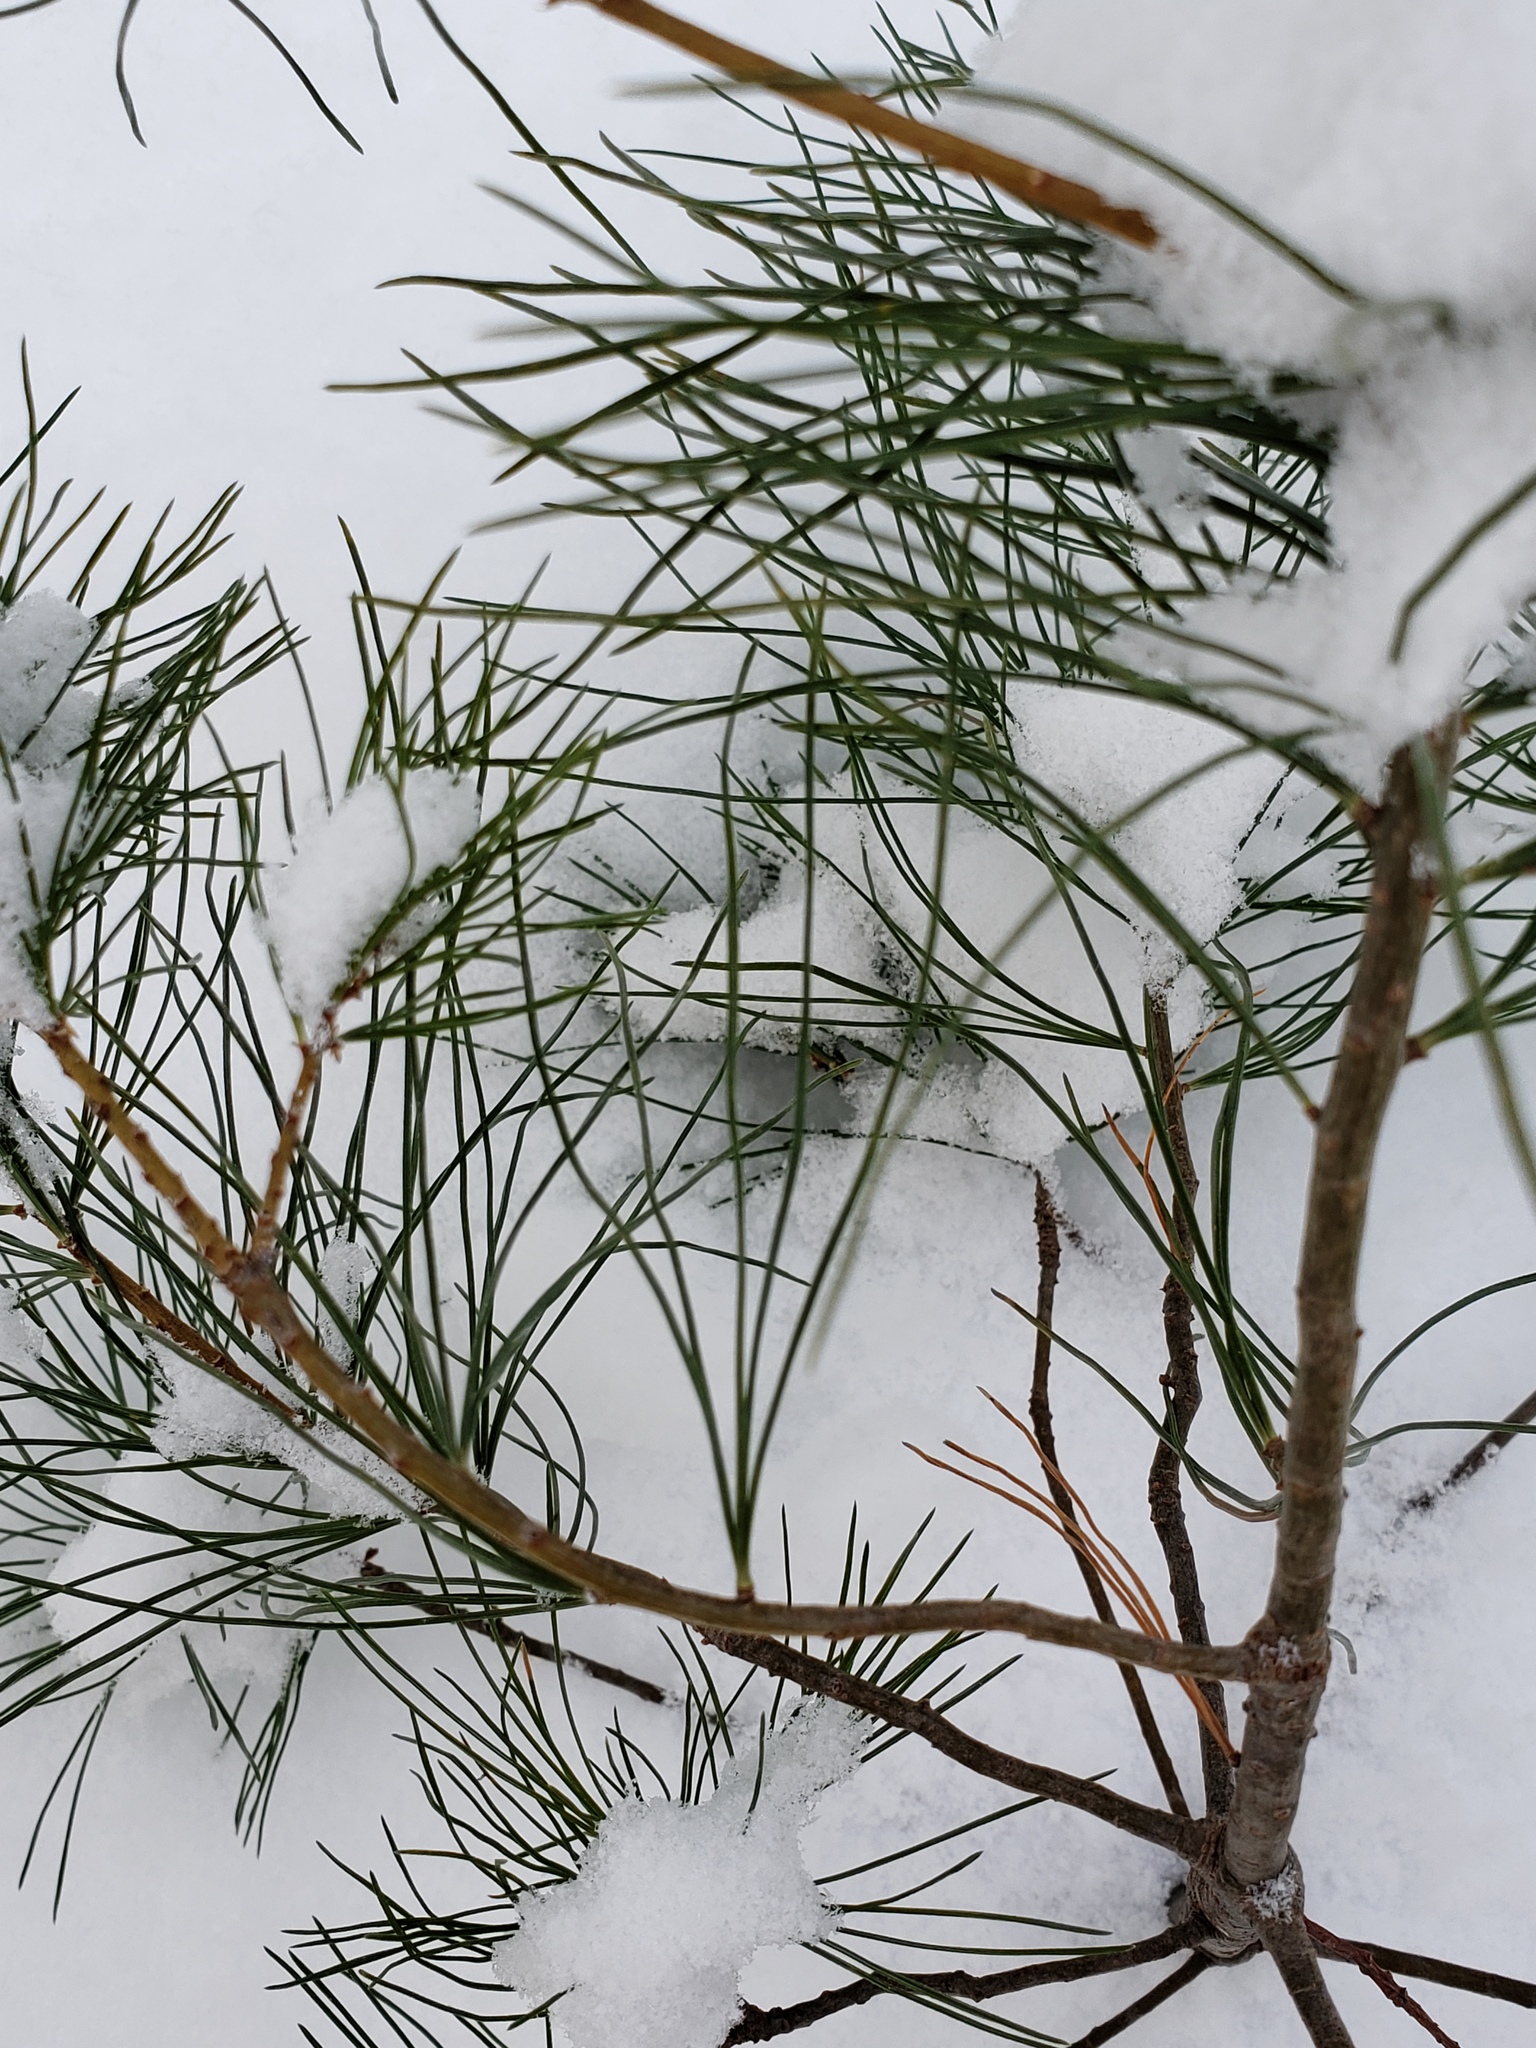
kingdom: Plantae
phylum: Tracheophyta
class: Pinopsida
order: Pinales
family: Pinaceae
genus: Pinus
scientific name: Pinus strobus
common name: Weymouth pine
